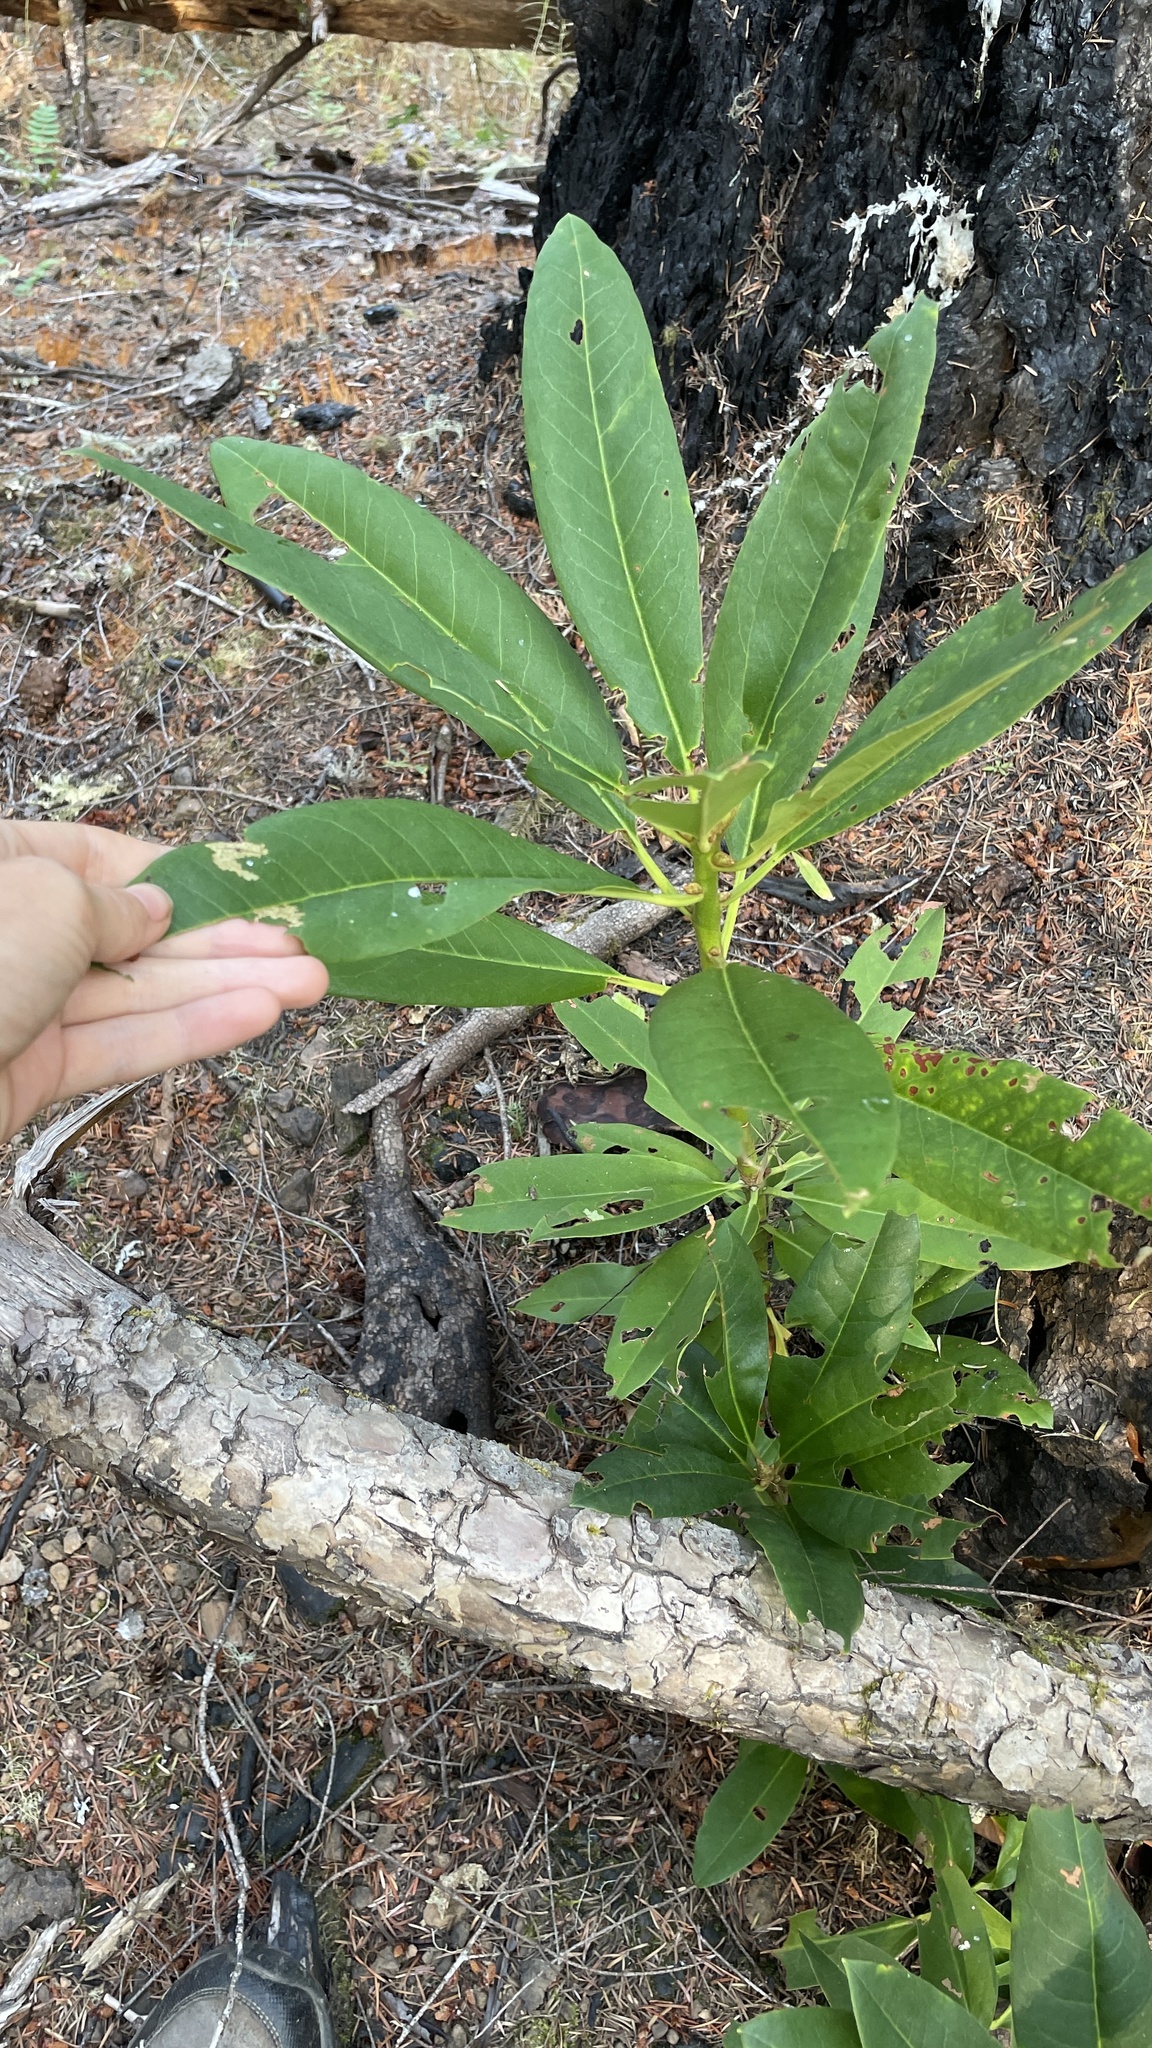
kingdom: Plantae
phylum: Tracheophyta
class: Magnoliopsida
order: Ericales
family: Ericaceae
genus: Rhododendron
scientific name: Rhododendron macrophyllum
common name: California rose bay
